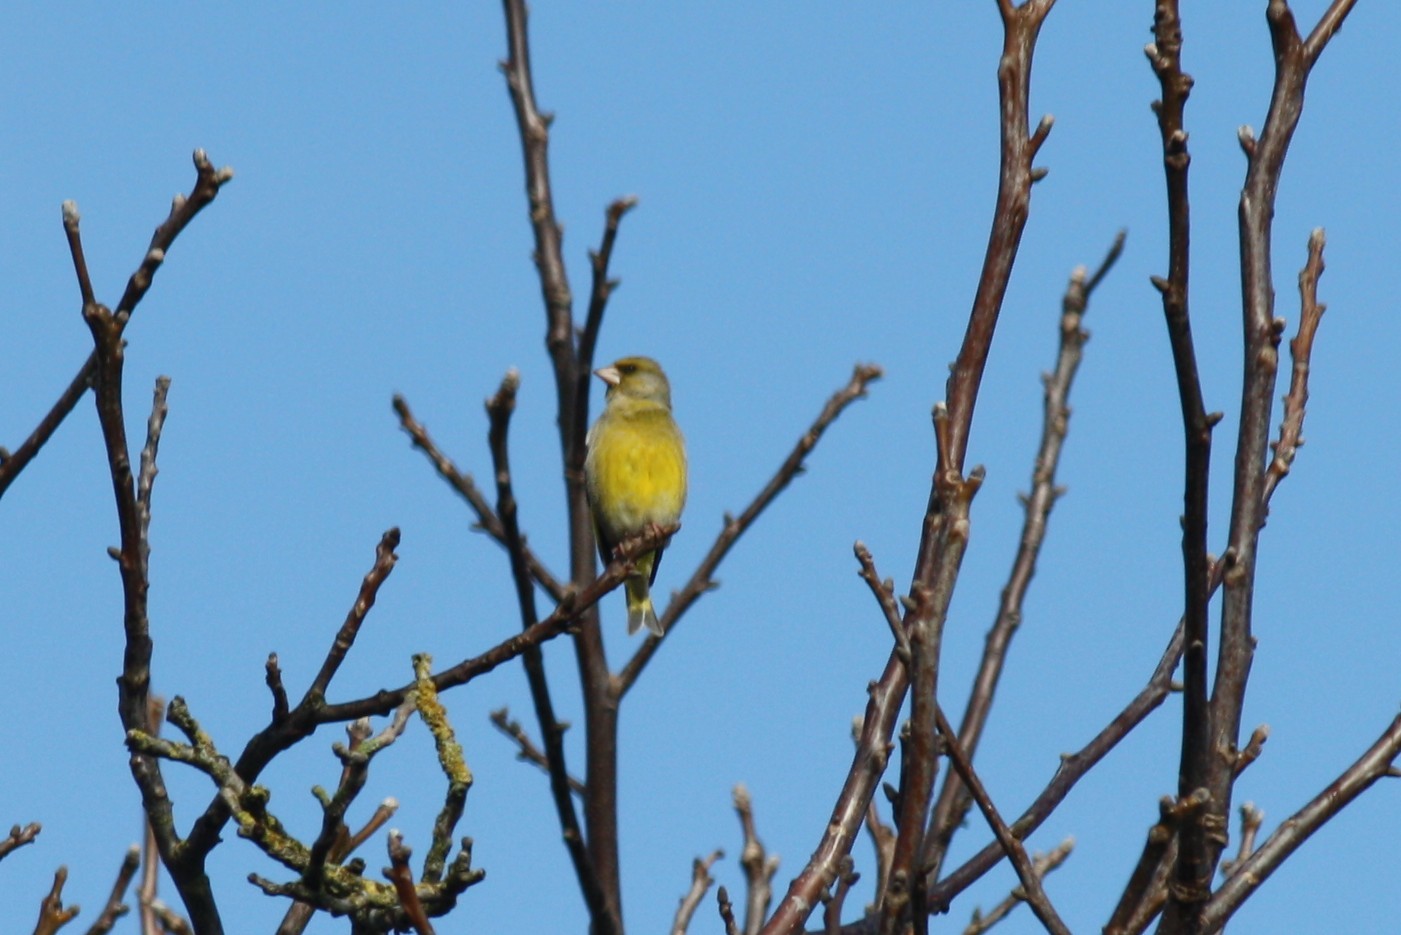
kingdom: Plantae
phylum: Tracheophyta
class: Liliopsida
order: Poales
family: Poaceae
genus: Chloris
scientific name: Chloris chloris
